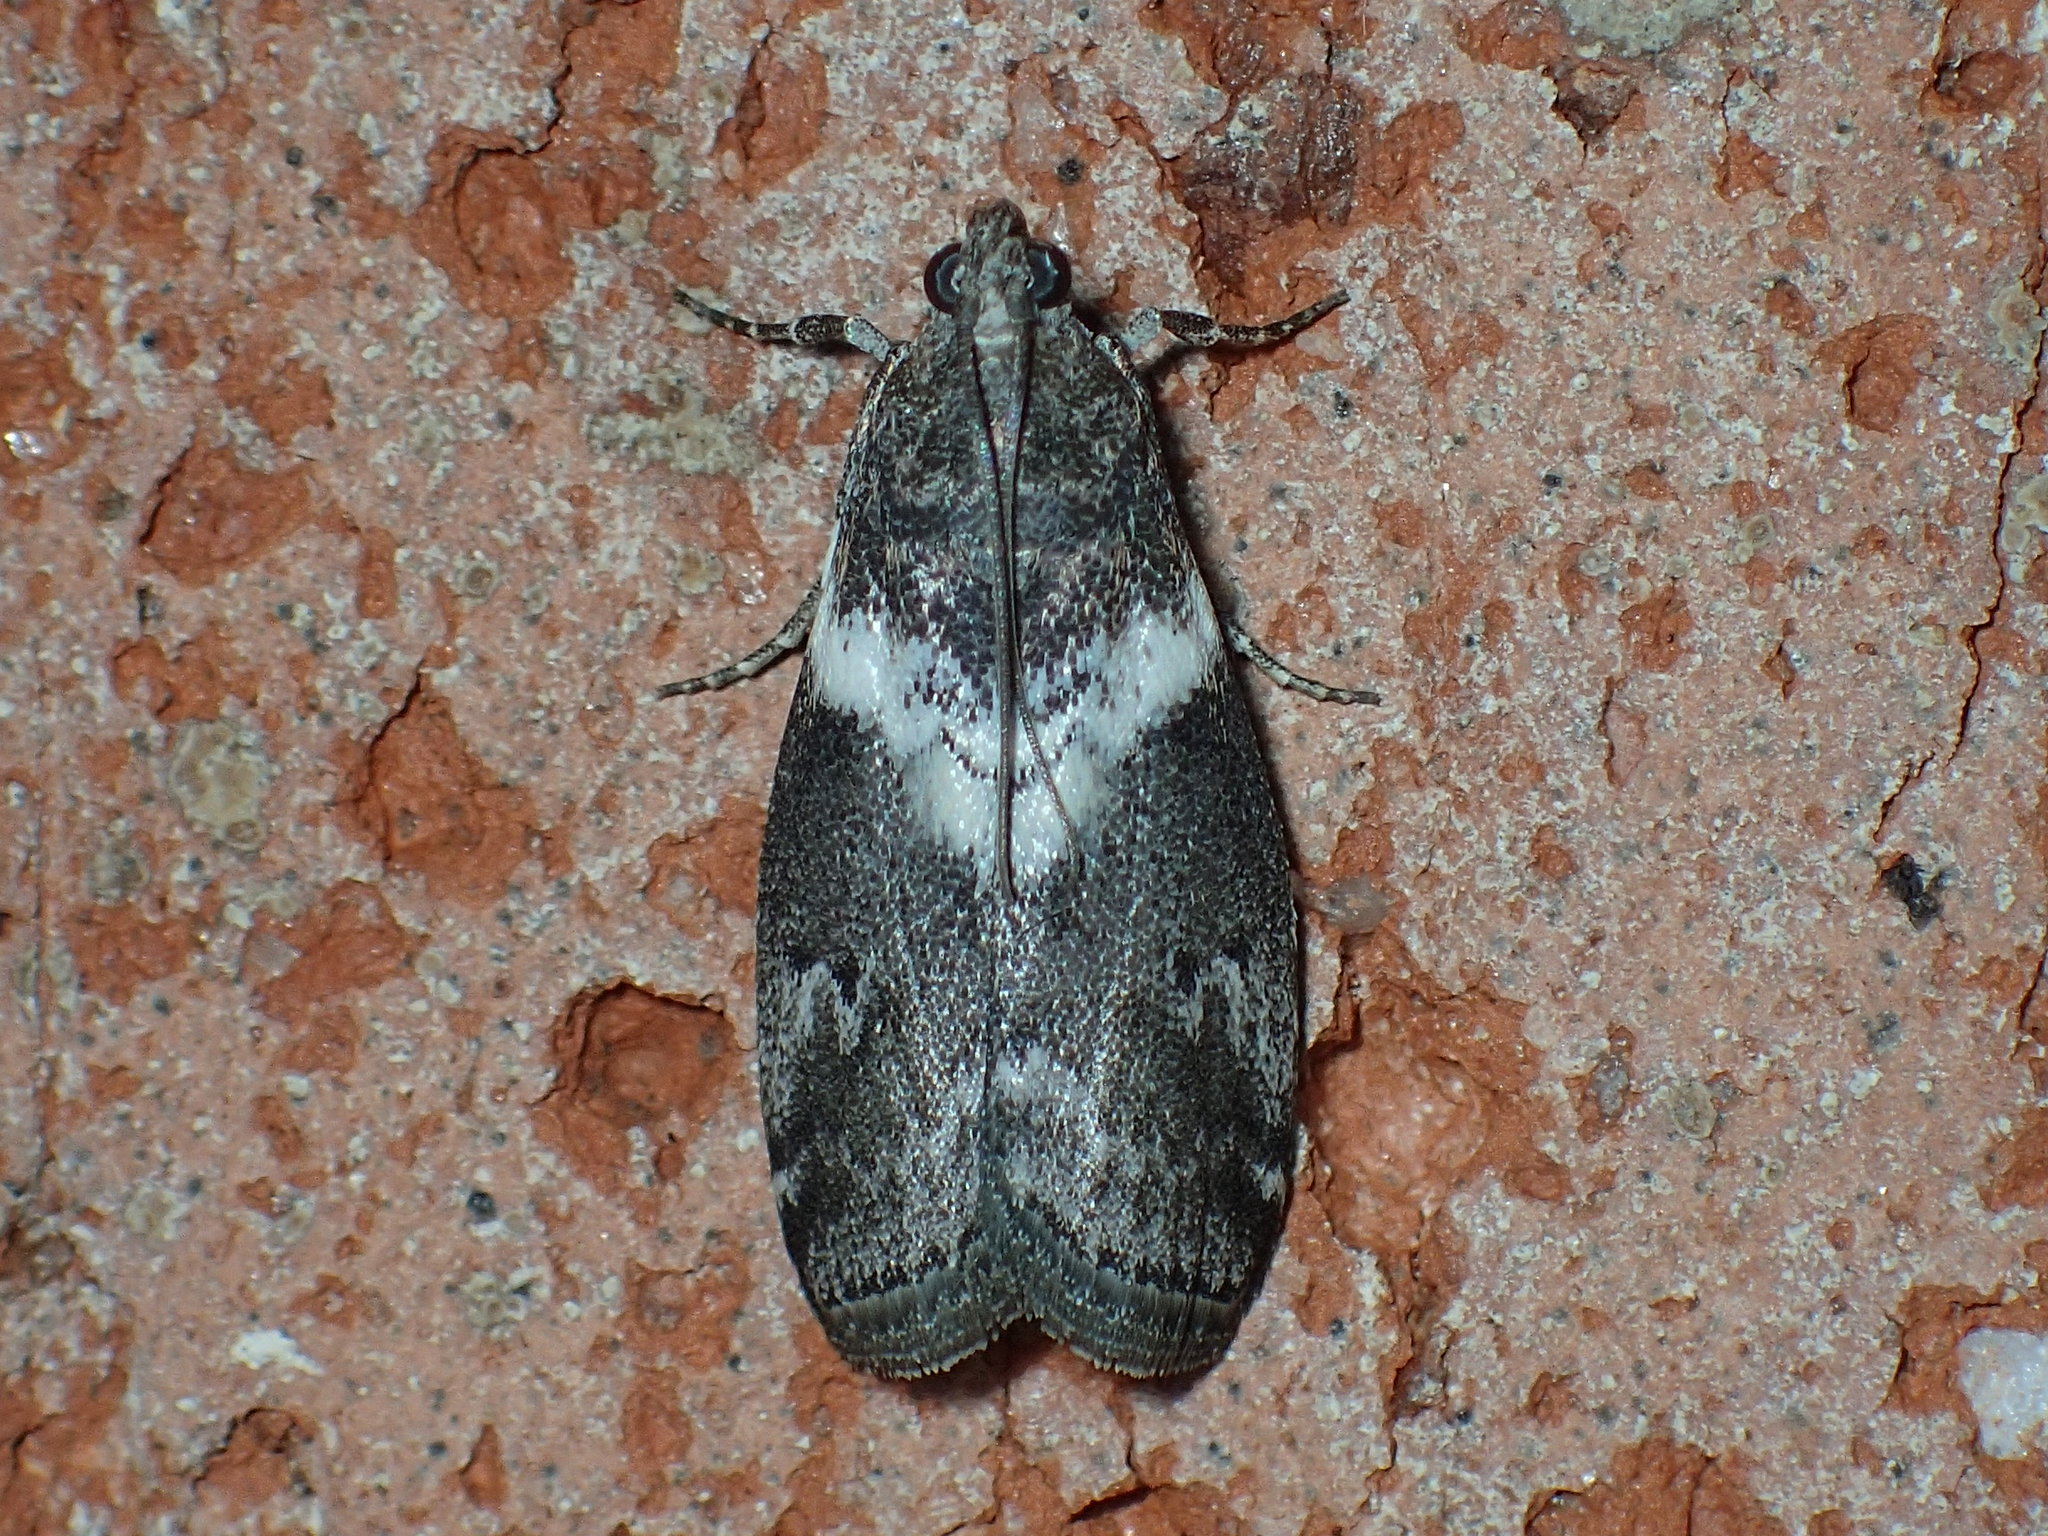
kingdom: Animalia
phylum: Arthropoda
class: Insecta
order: Lepidoptera
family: Pyralidae
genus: Salebriaria
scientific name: Salebriaria fasciata
